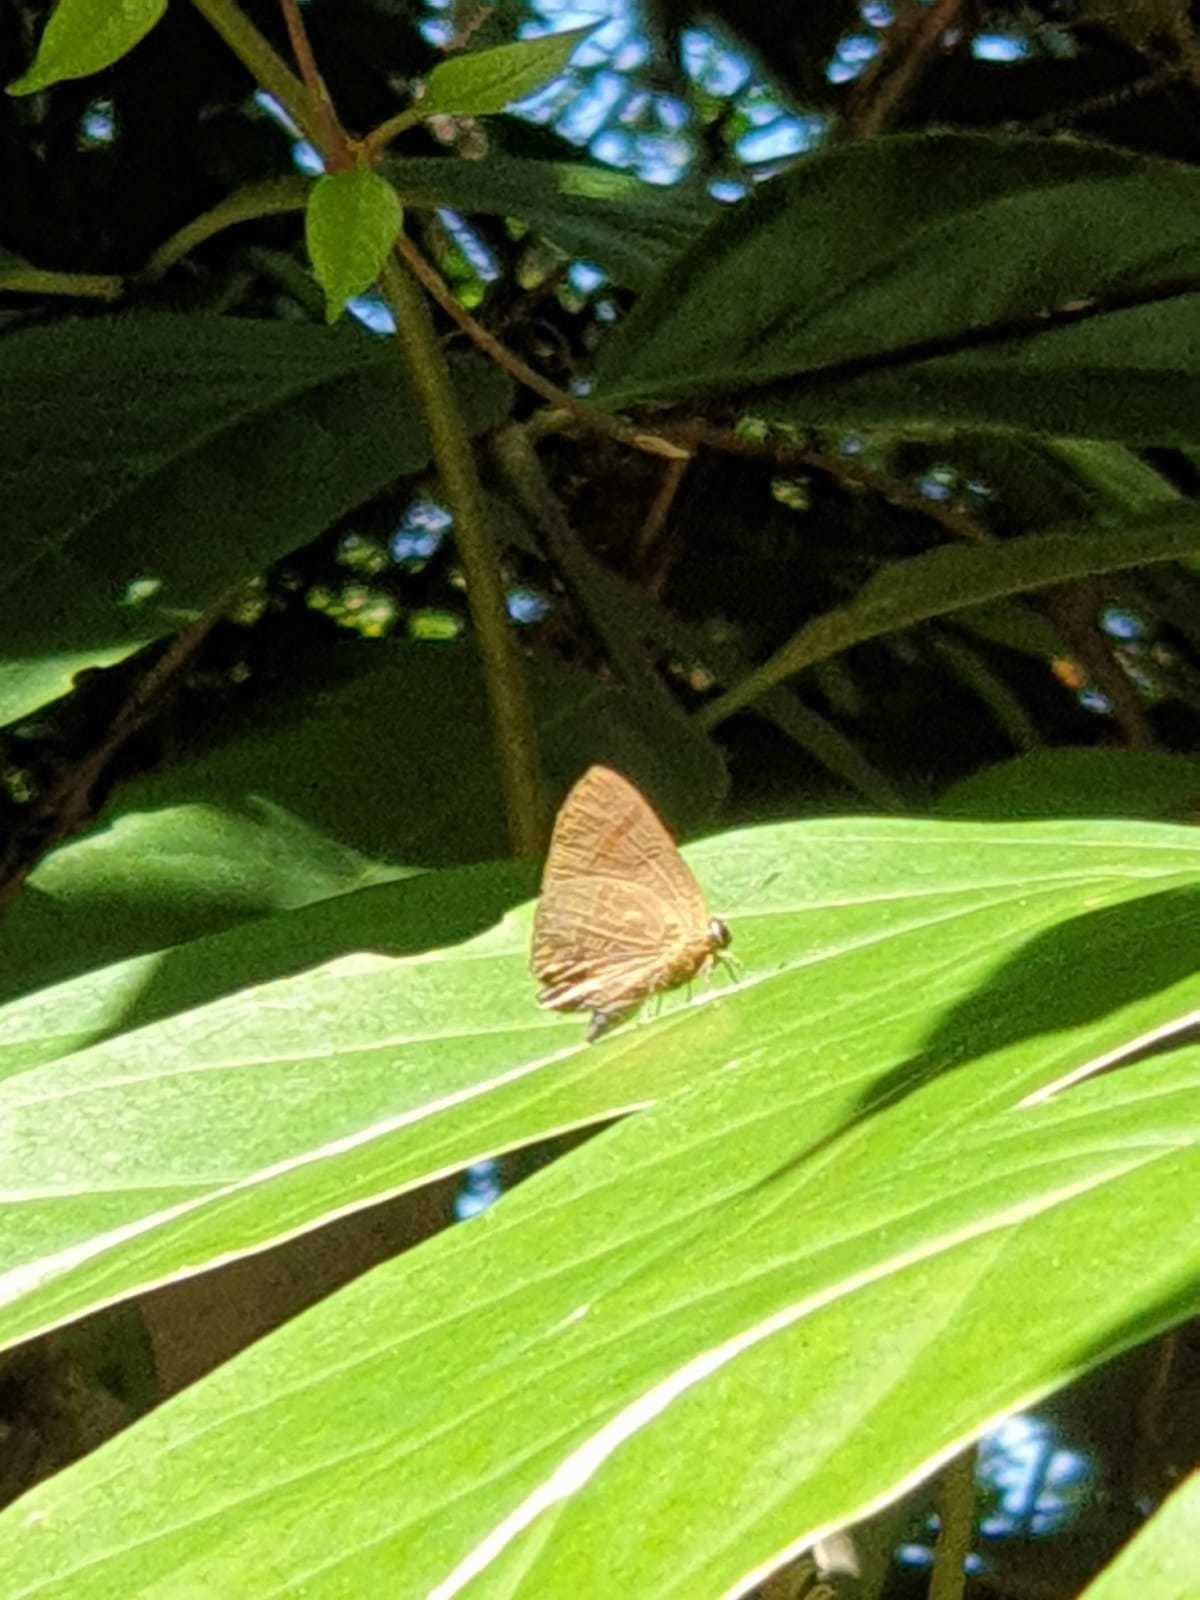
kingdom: Animalia
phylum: Arthropoda
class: Insecta
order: Lepidoptera
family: Lycaenidae
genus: Rapala
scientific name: Rapala varuna
